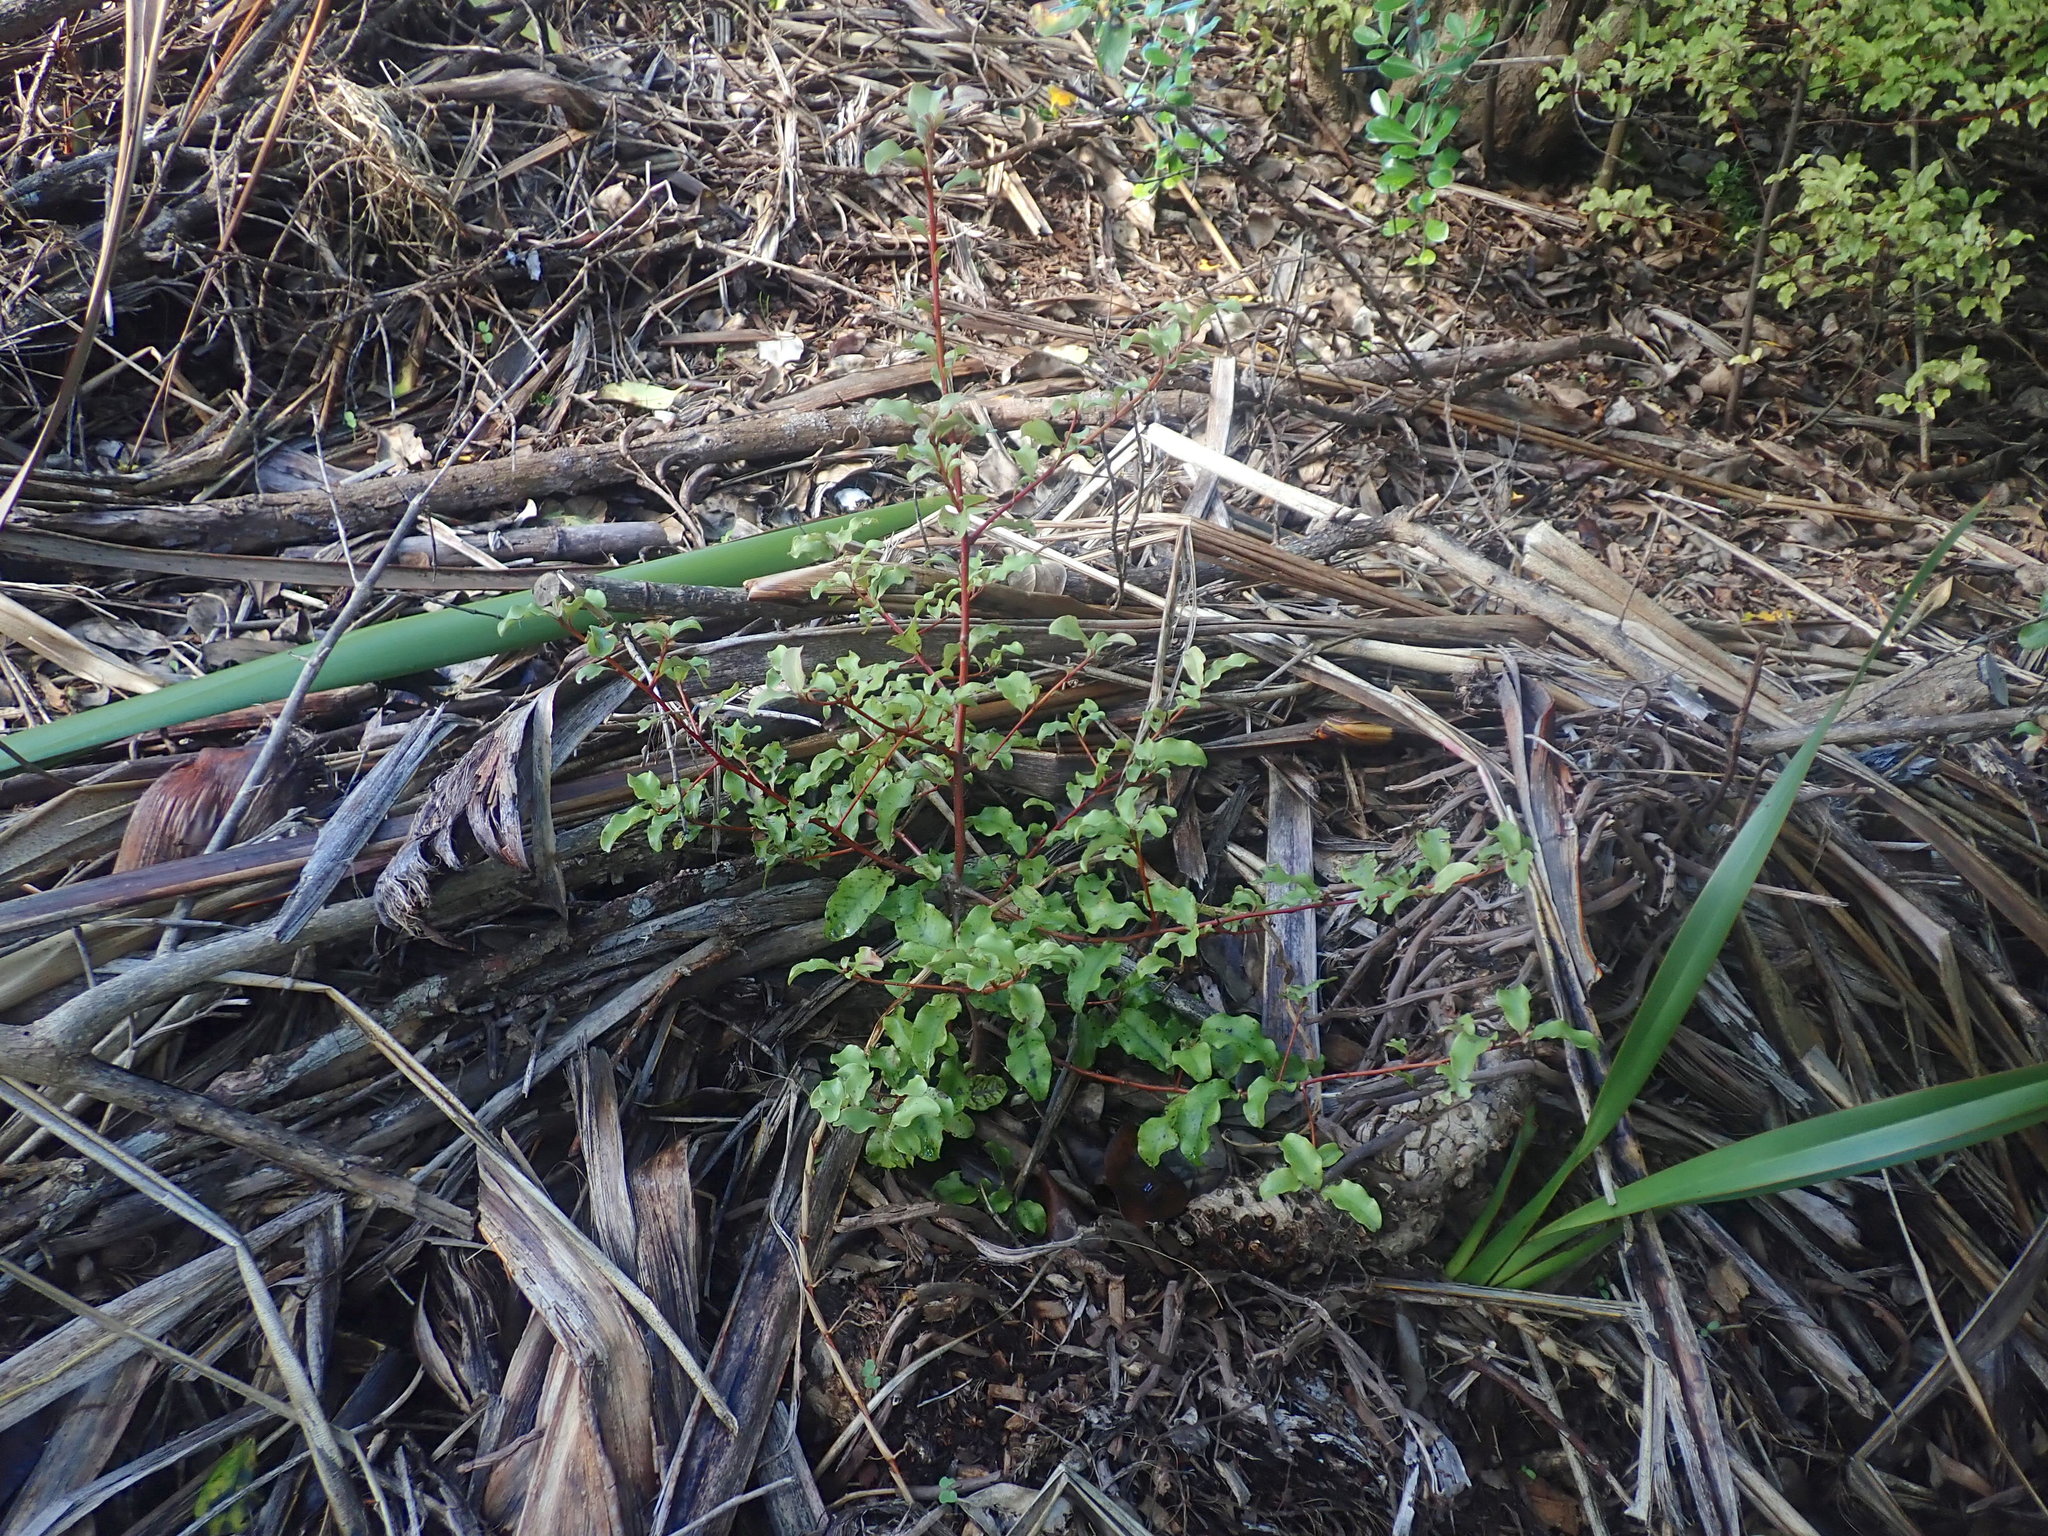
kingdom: Plantae
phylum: Tracheophyta
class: Magnoliopsida
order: Ericales
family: Primulaceae
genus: Myrsine
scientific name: Myrsine australis
